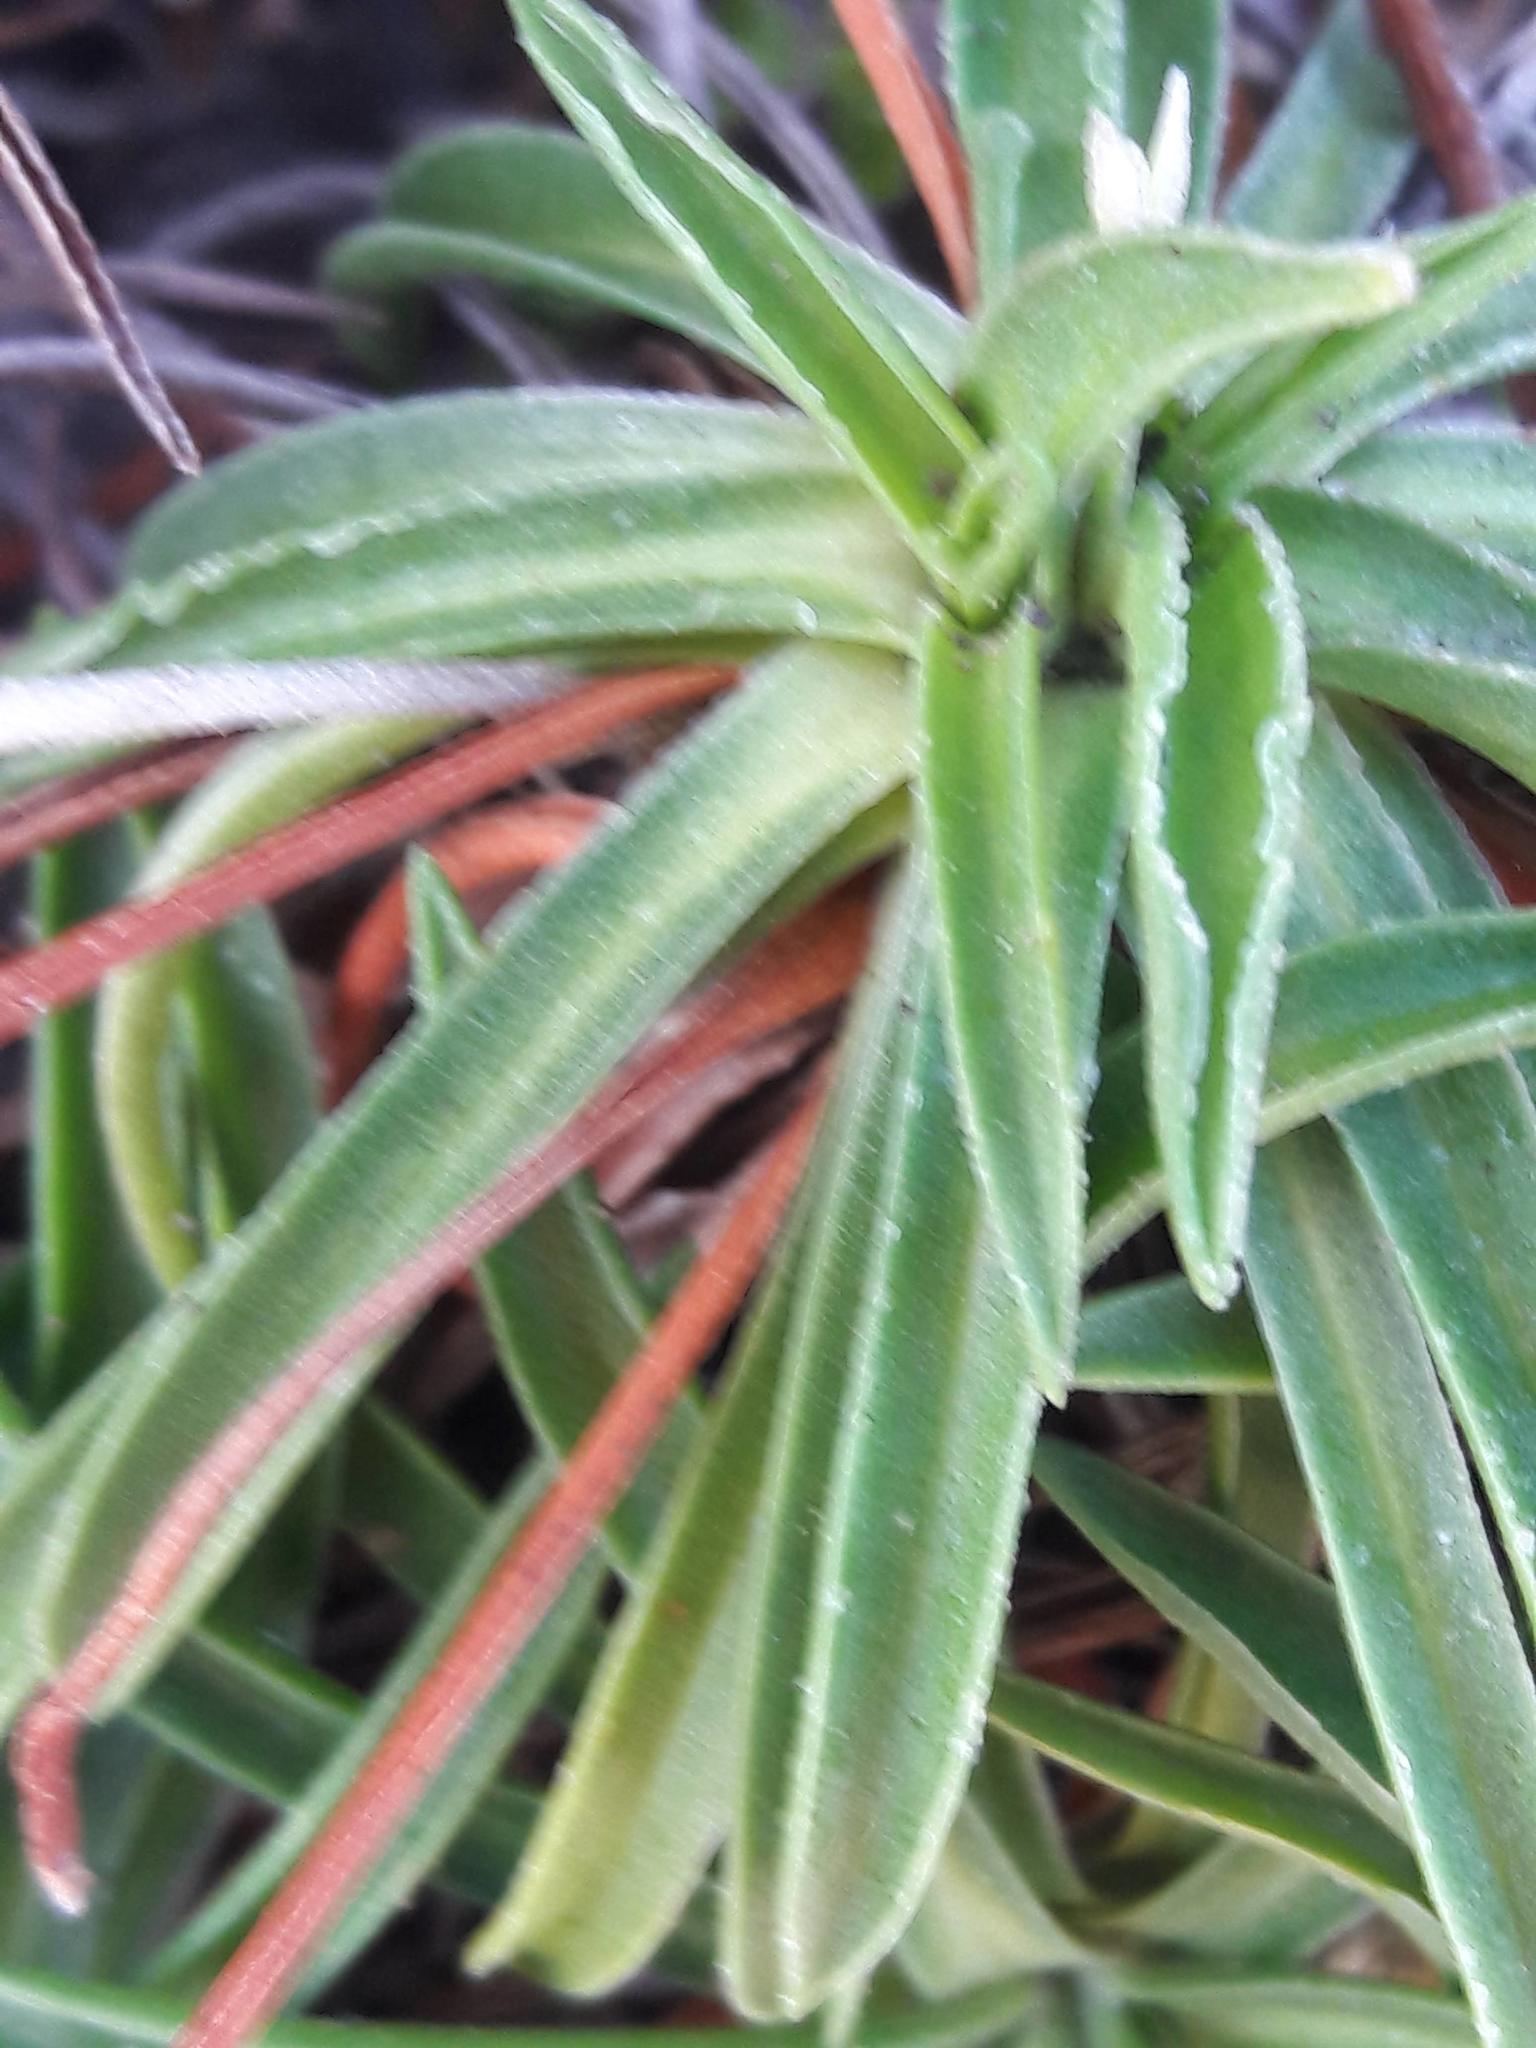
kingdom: Plantae
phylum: Tracheophyta
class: Magnoliopsida
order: Caryophyllales
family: Plumbaginaceae
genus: Armeria
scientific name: Armeria ruscinonensis
